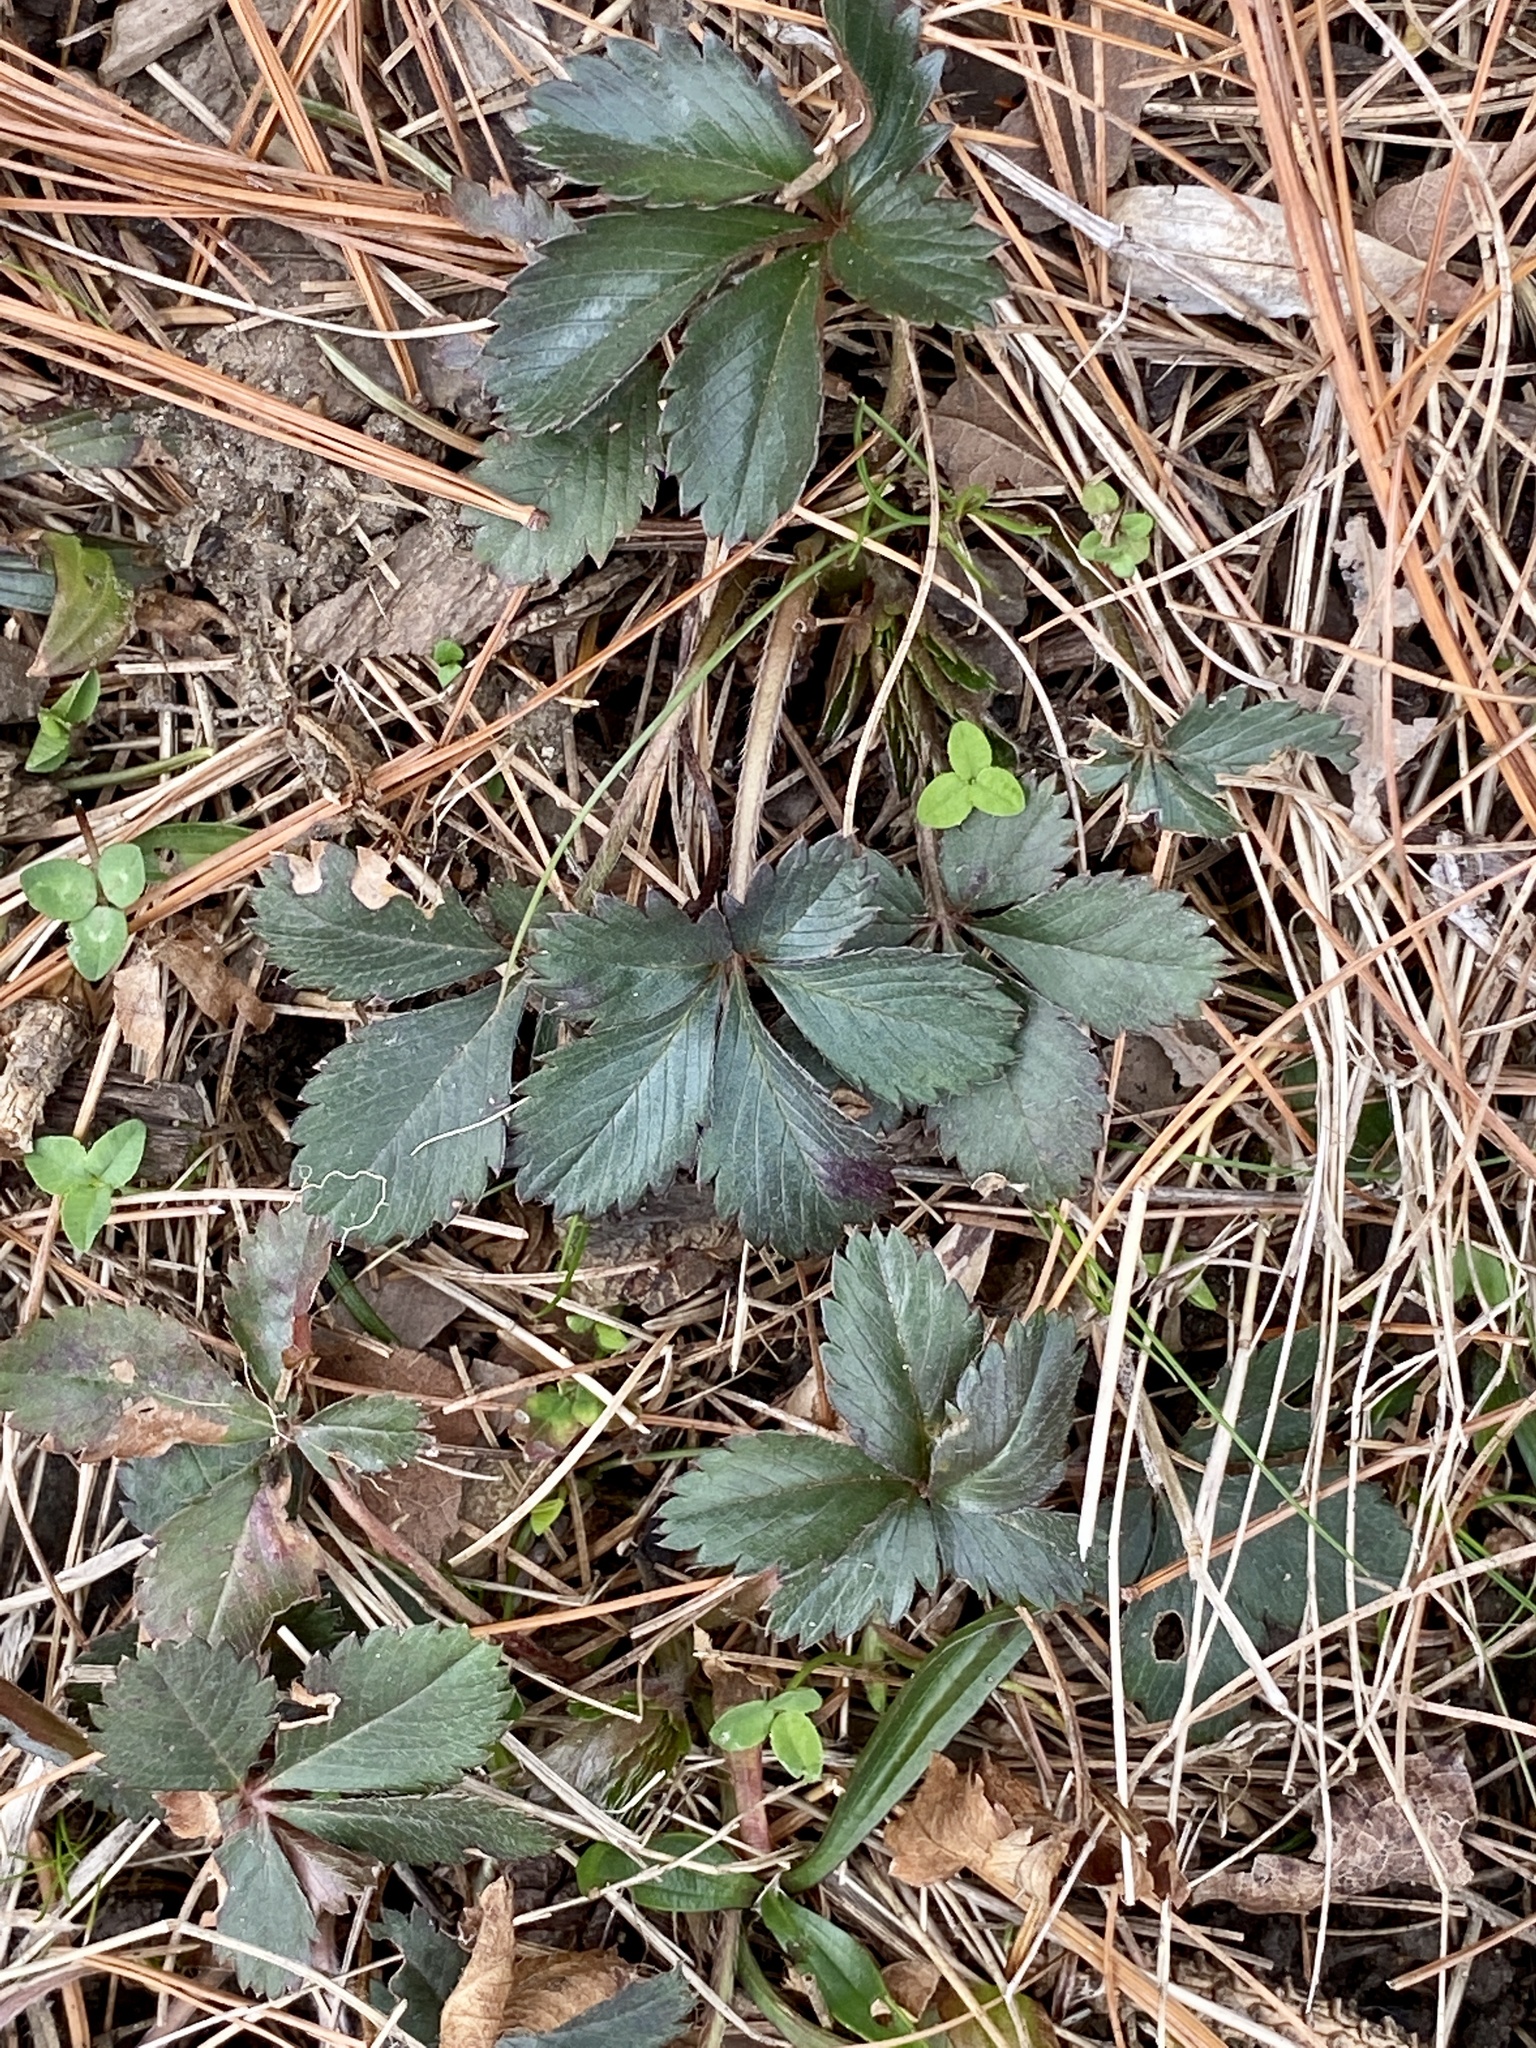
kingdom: Plantae
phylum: Tracheophyta
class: Magnoliopsida
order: Rosales
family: Rosaceae
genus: Potentilla
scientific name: Potentilla canadensis
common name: Canada cinquefoil
